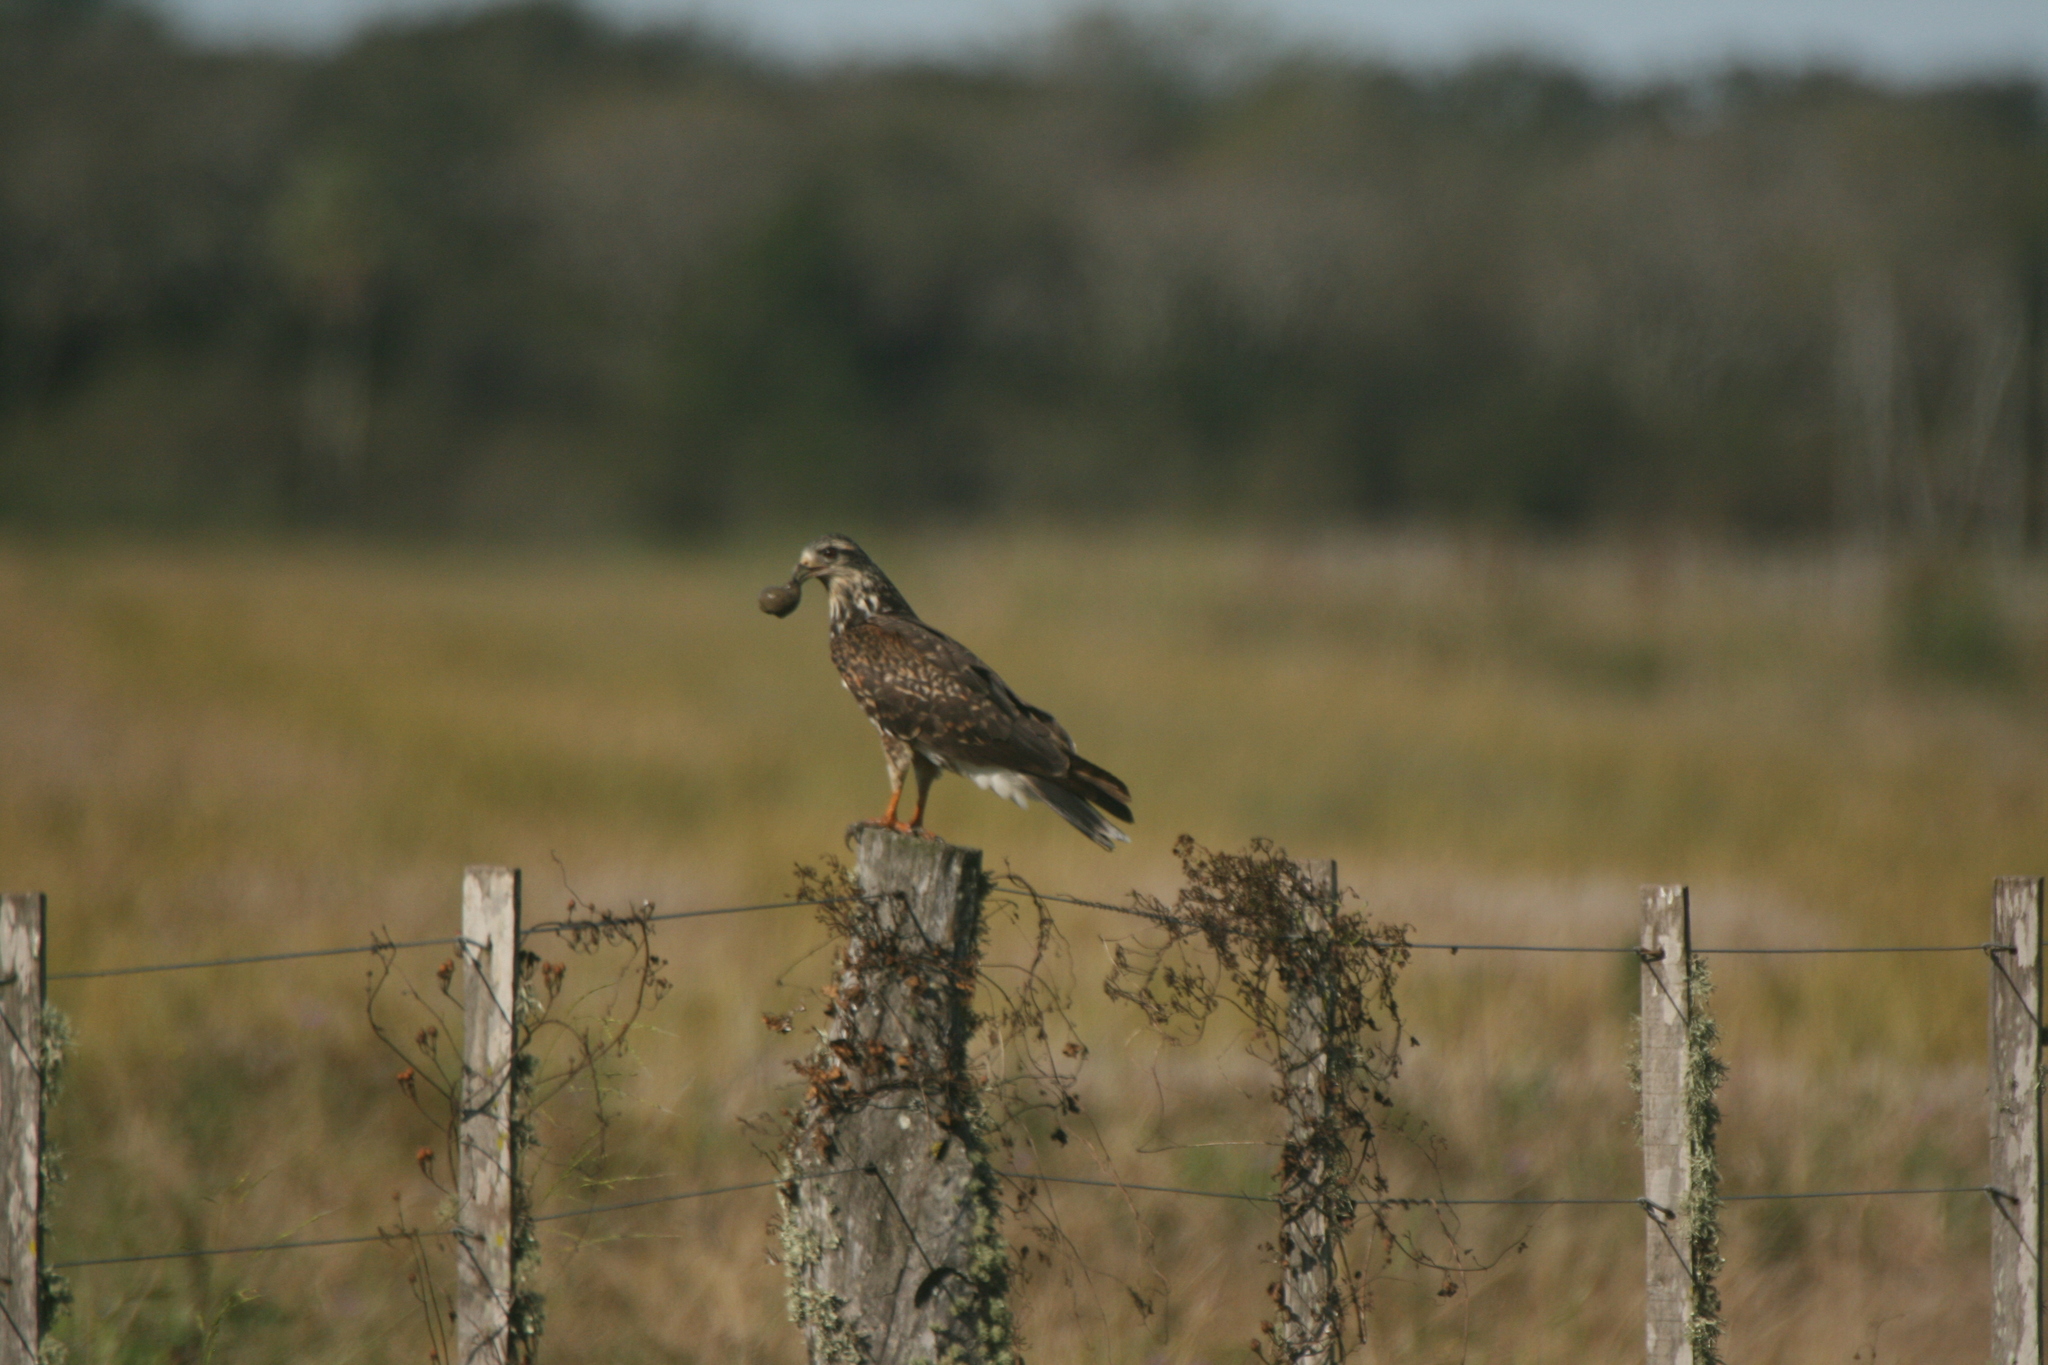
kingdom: Animalia
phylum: Chordata
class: Aves
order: Accipitriformes
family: Accipitridae
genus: Rostrhamus
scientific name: Rostrhamus sociabilis
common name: Snail kite
